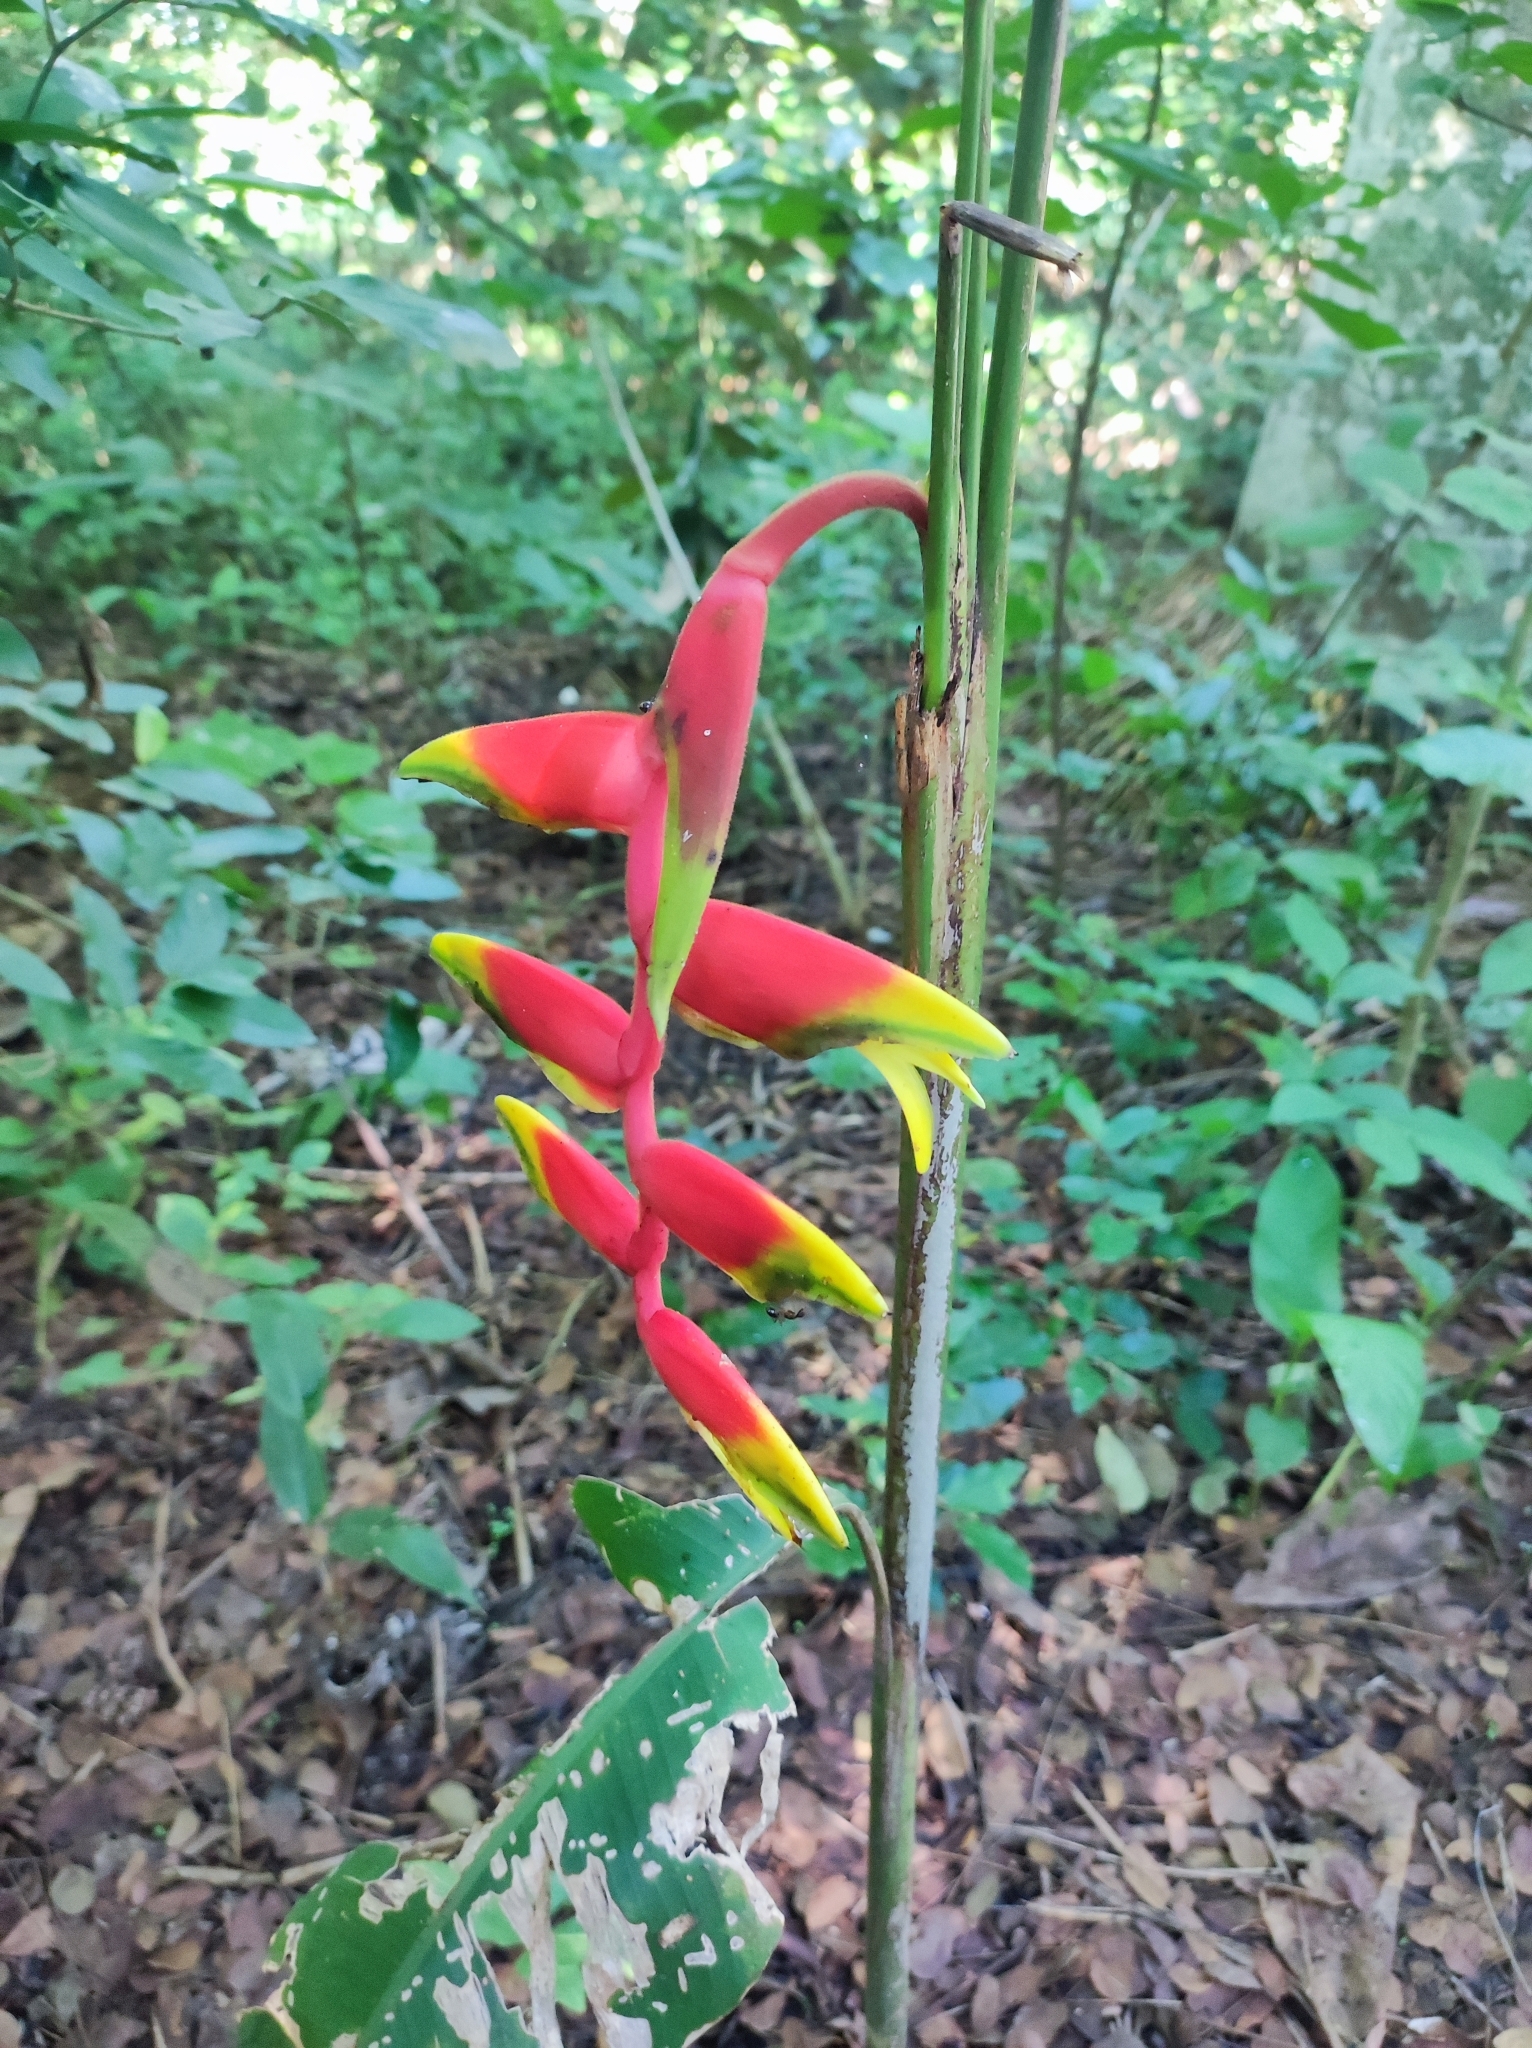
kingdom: Plantae
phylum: Tracheophyta
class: Liliopsida
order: Zingiberales
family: Heliconiaceae
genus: Heliconia
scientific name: Heliconia rostrata
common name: False bird of paradise
